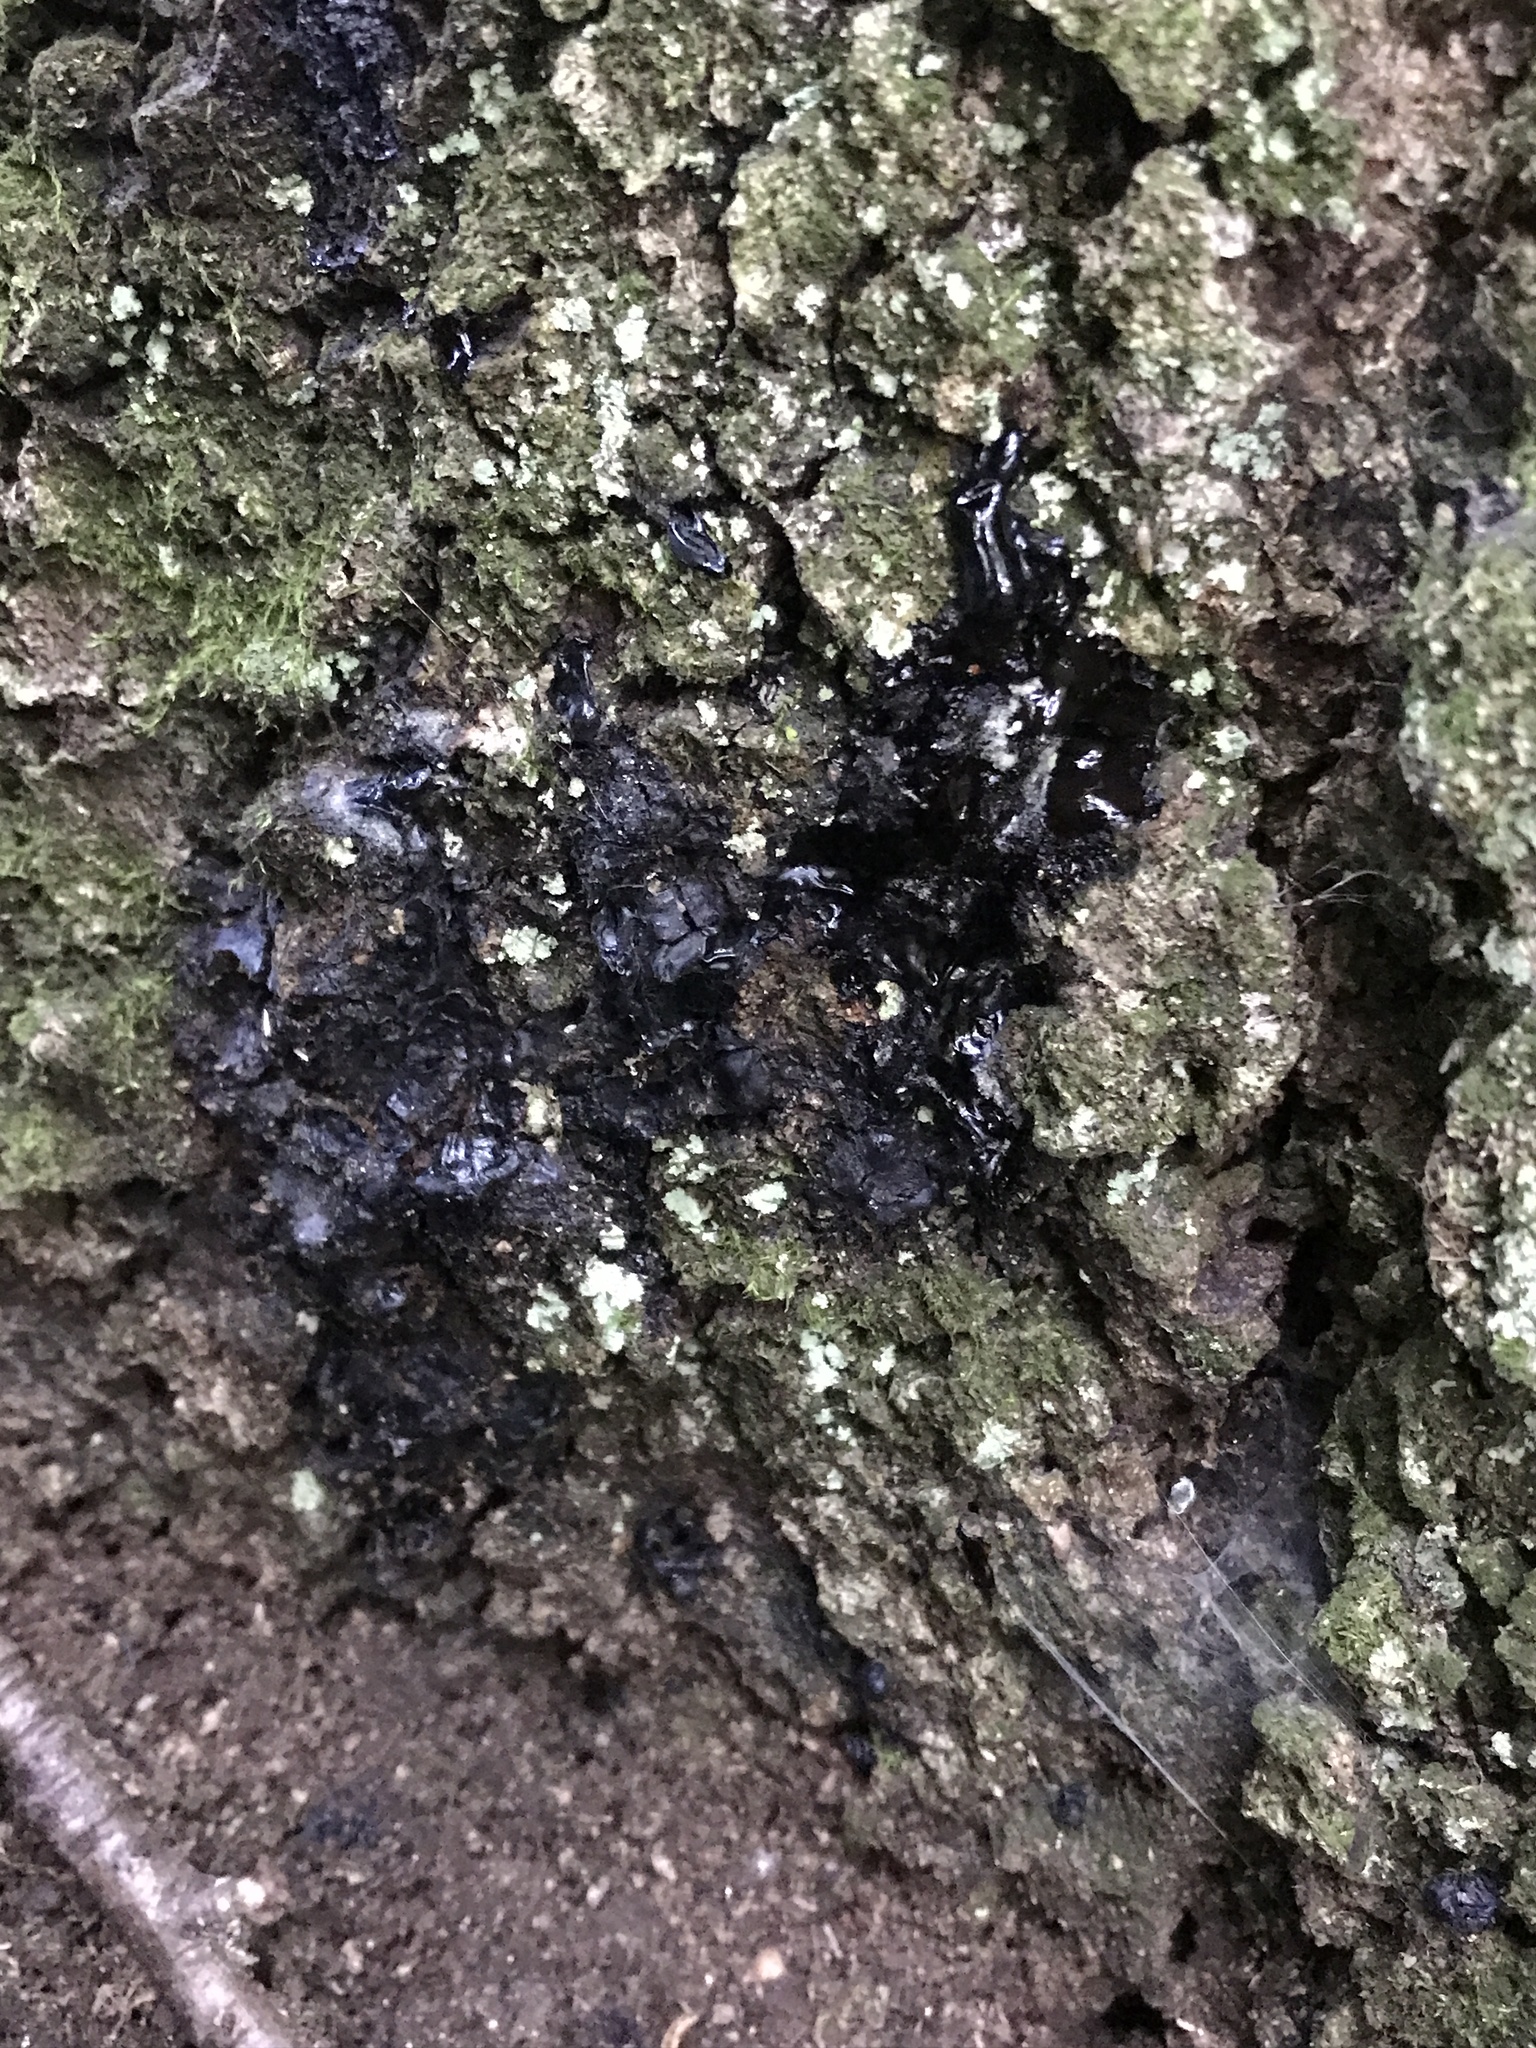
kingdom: Fungi
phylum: Ascomycota
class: Leotiomycetes
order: Phacidiales
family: Phacidiaceae
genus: Bulgaria
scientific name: Bulgaria inquinans
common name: Black bulgar
